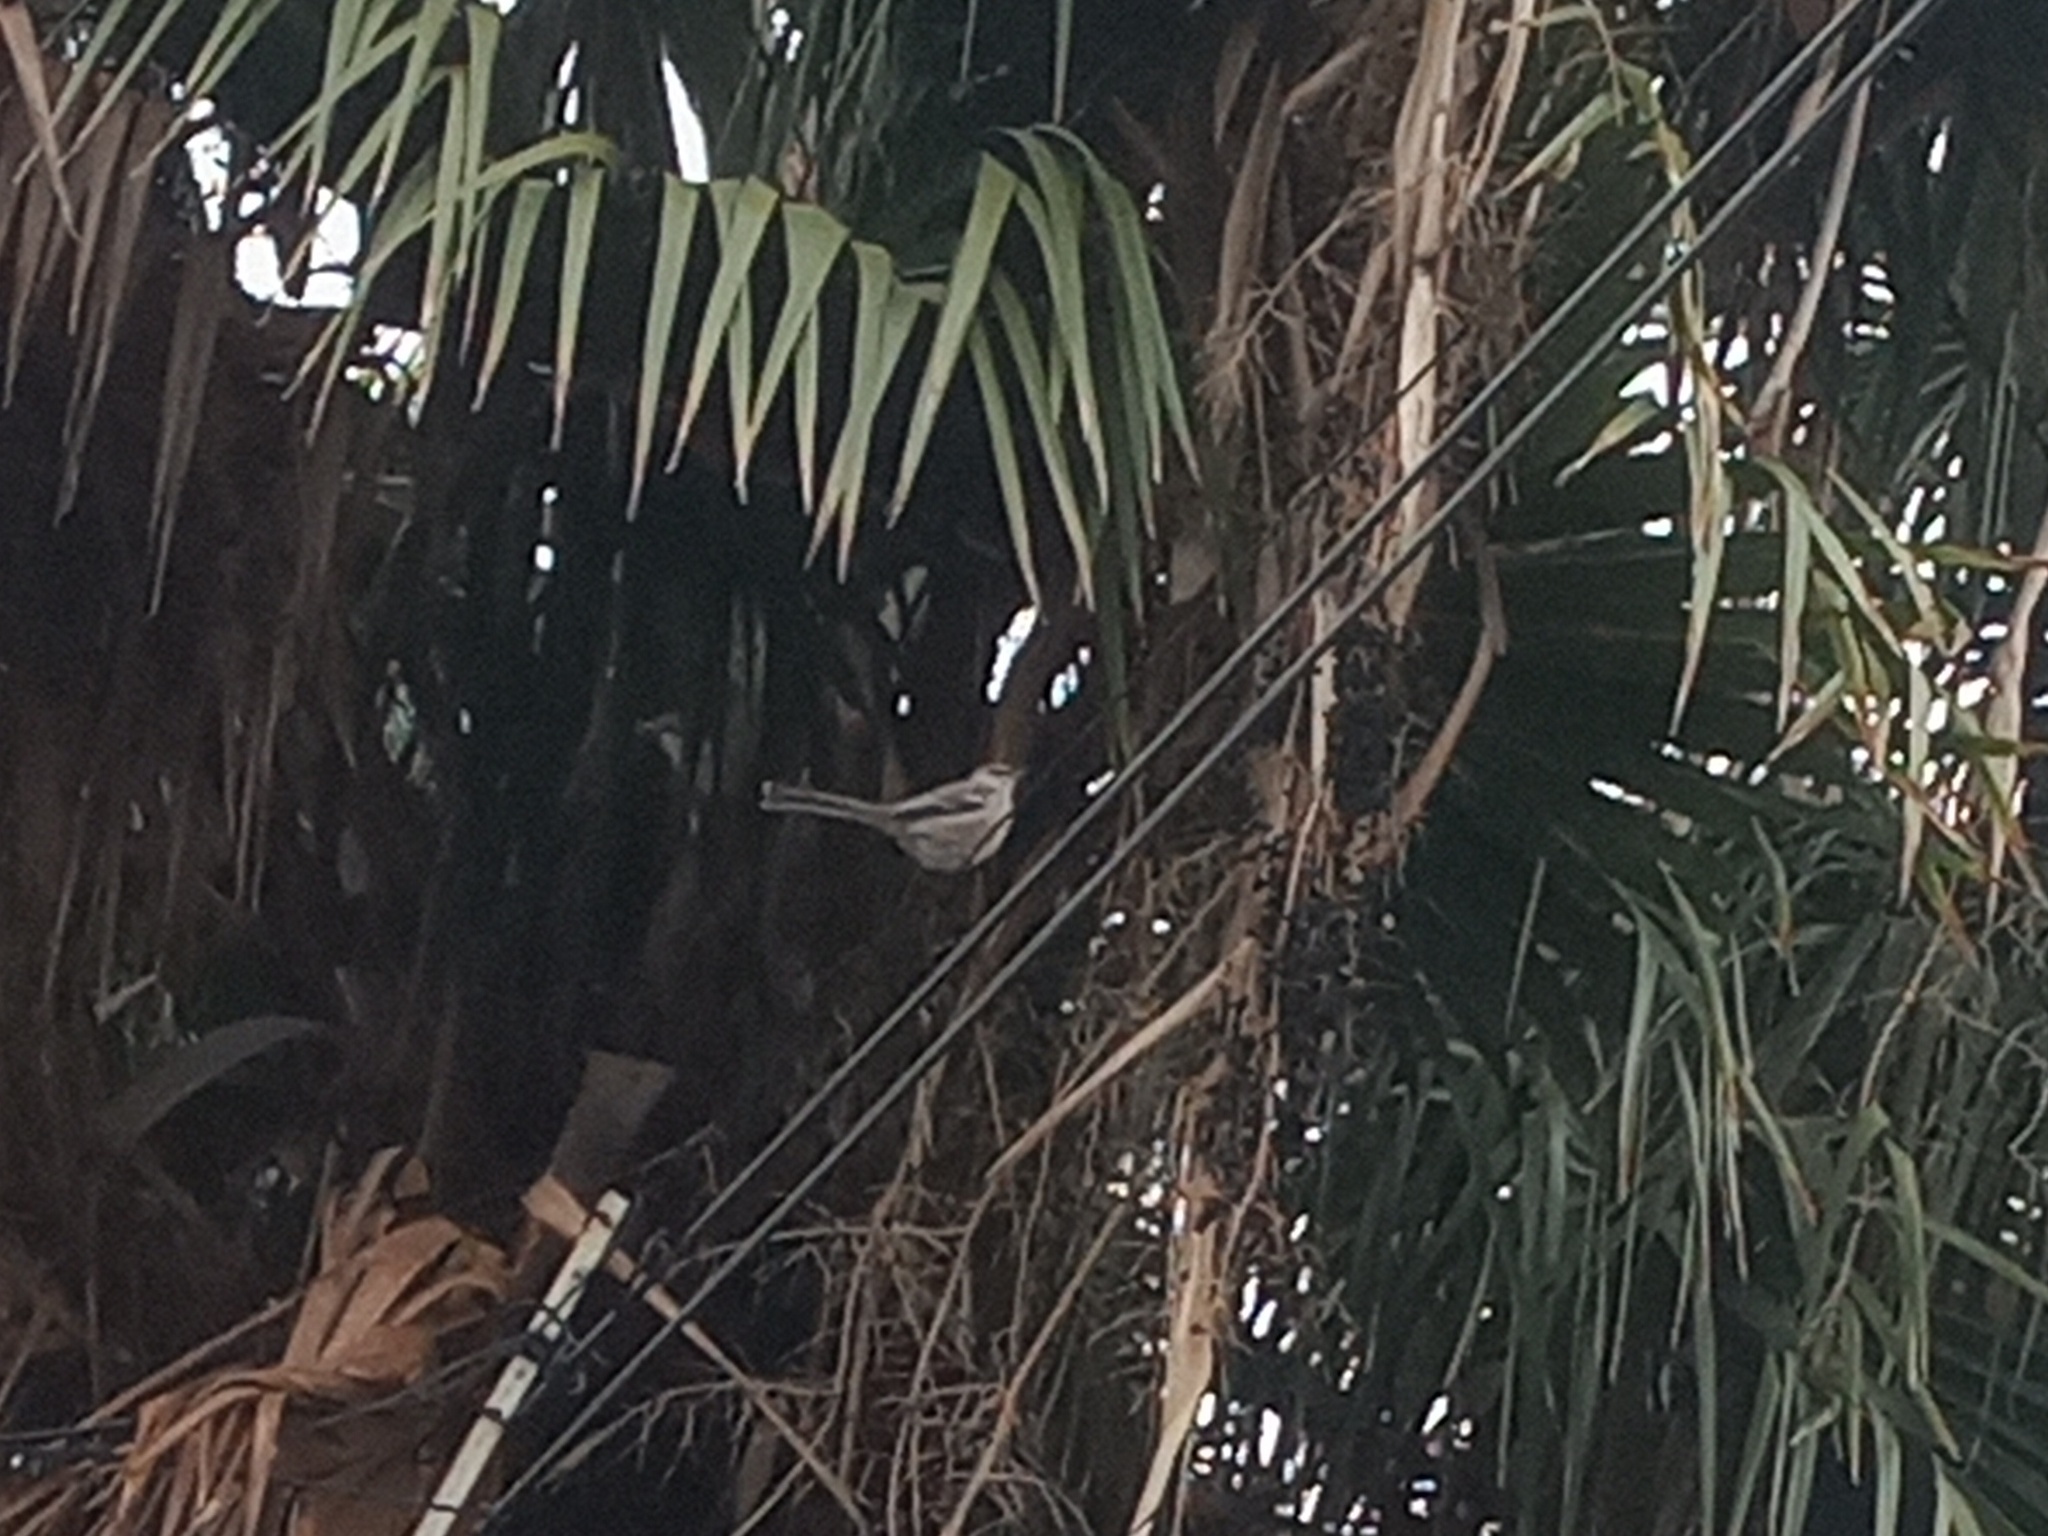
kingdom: Animalia
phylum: Chordata
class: Aves
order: Passeriformes
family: Mimidae
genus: Mimus
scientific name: Mimus polyglottos
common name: Northern mockingbird
